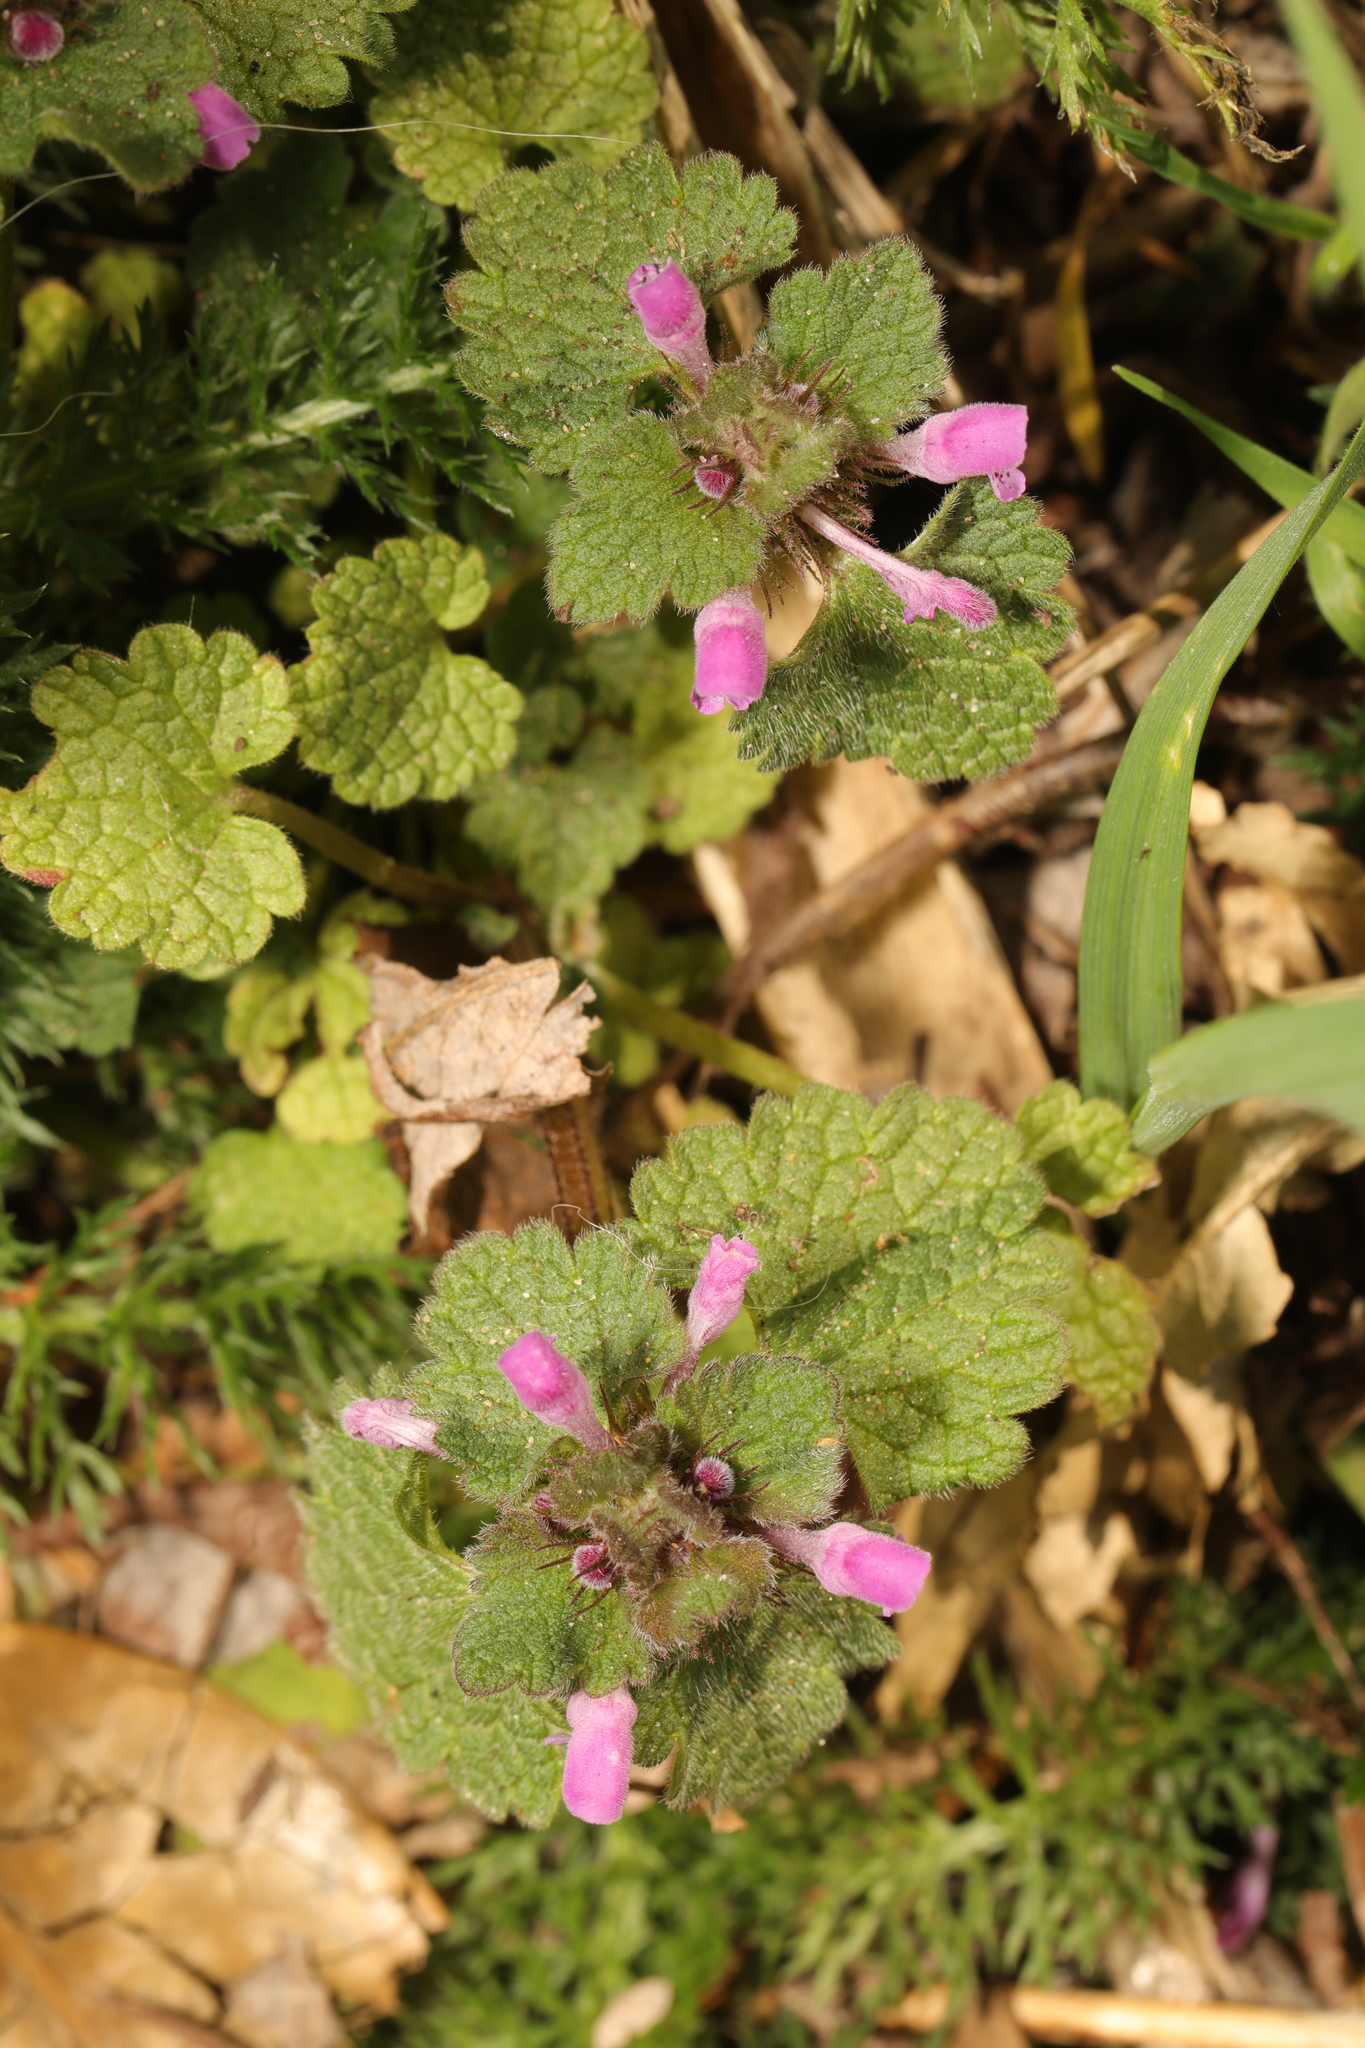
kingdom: Plantae
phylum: Tracheophyta
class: Magnoliopsida
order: Lamiales
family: Lamiaceae
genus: Lamium
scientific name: Lamium purpureum
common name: Red dead-nettle
